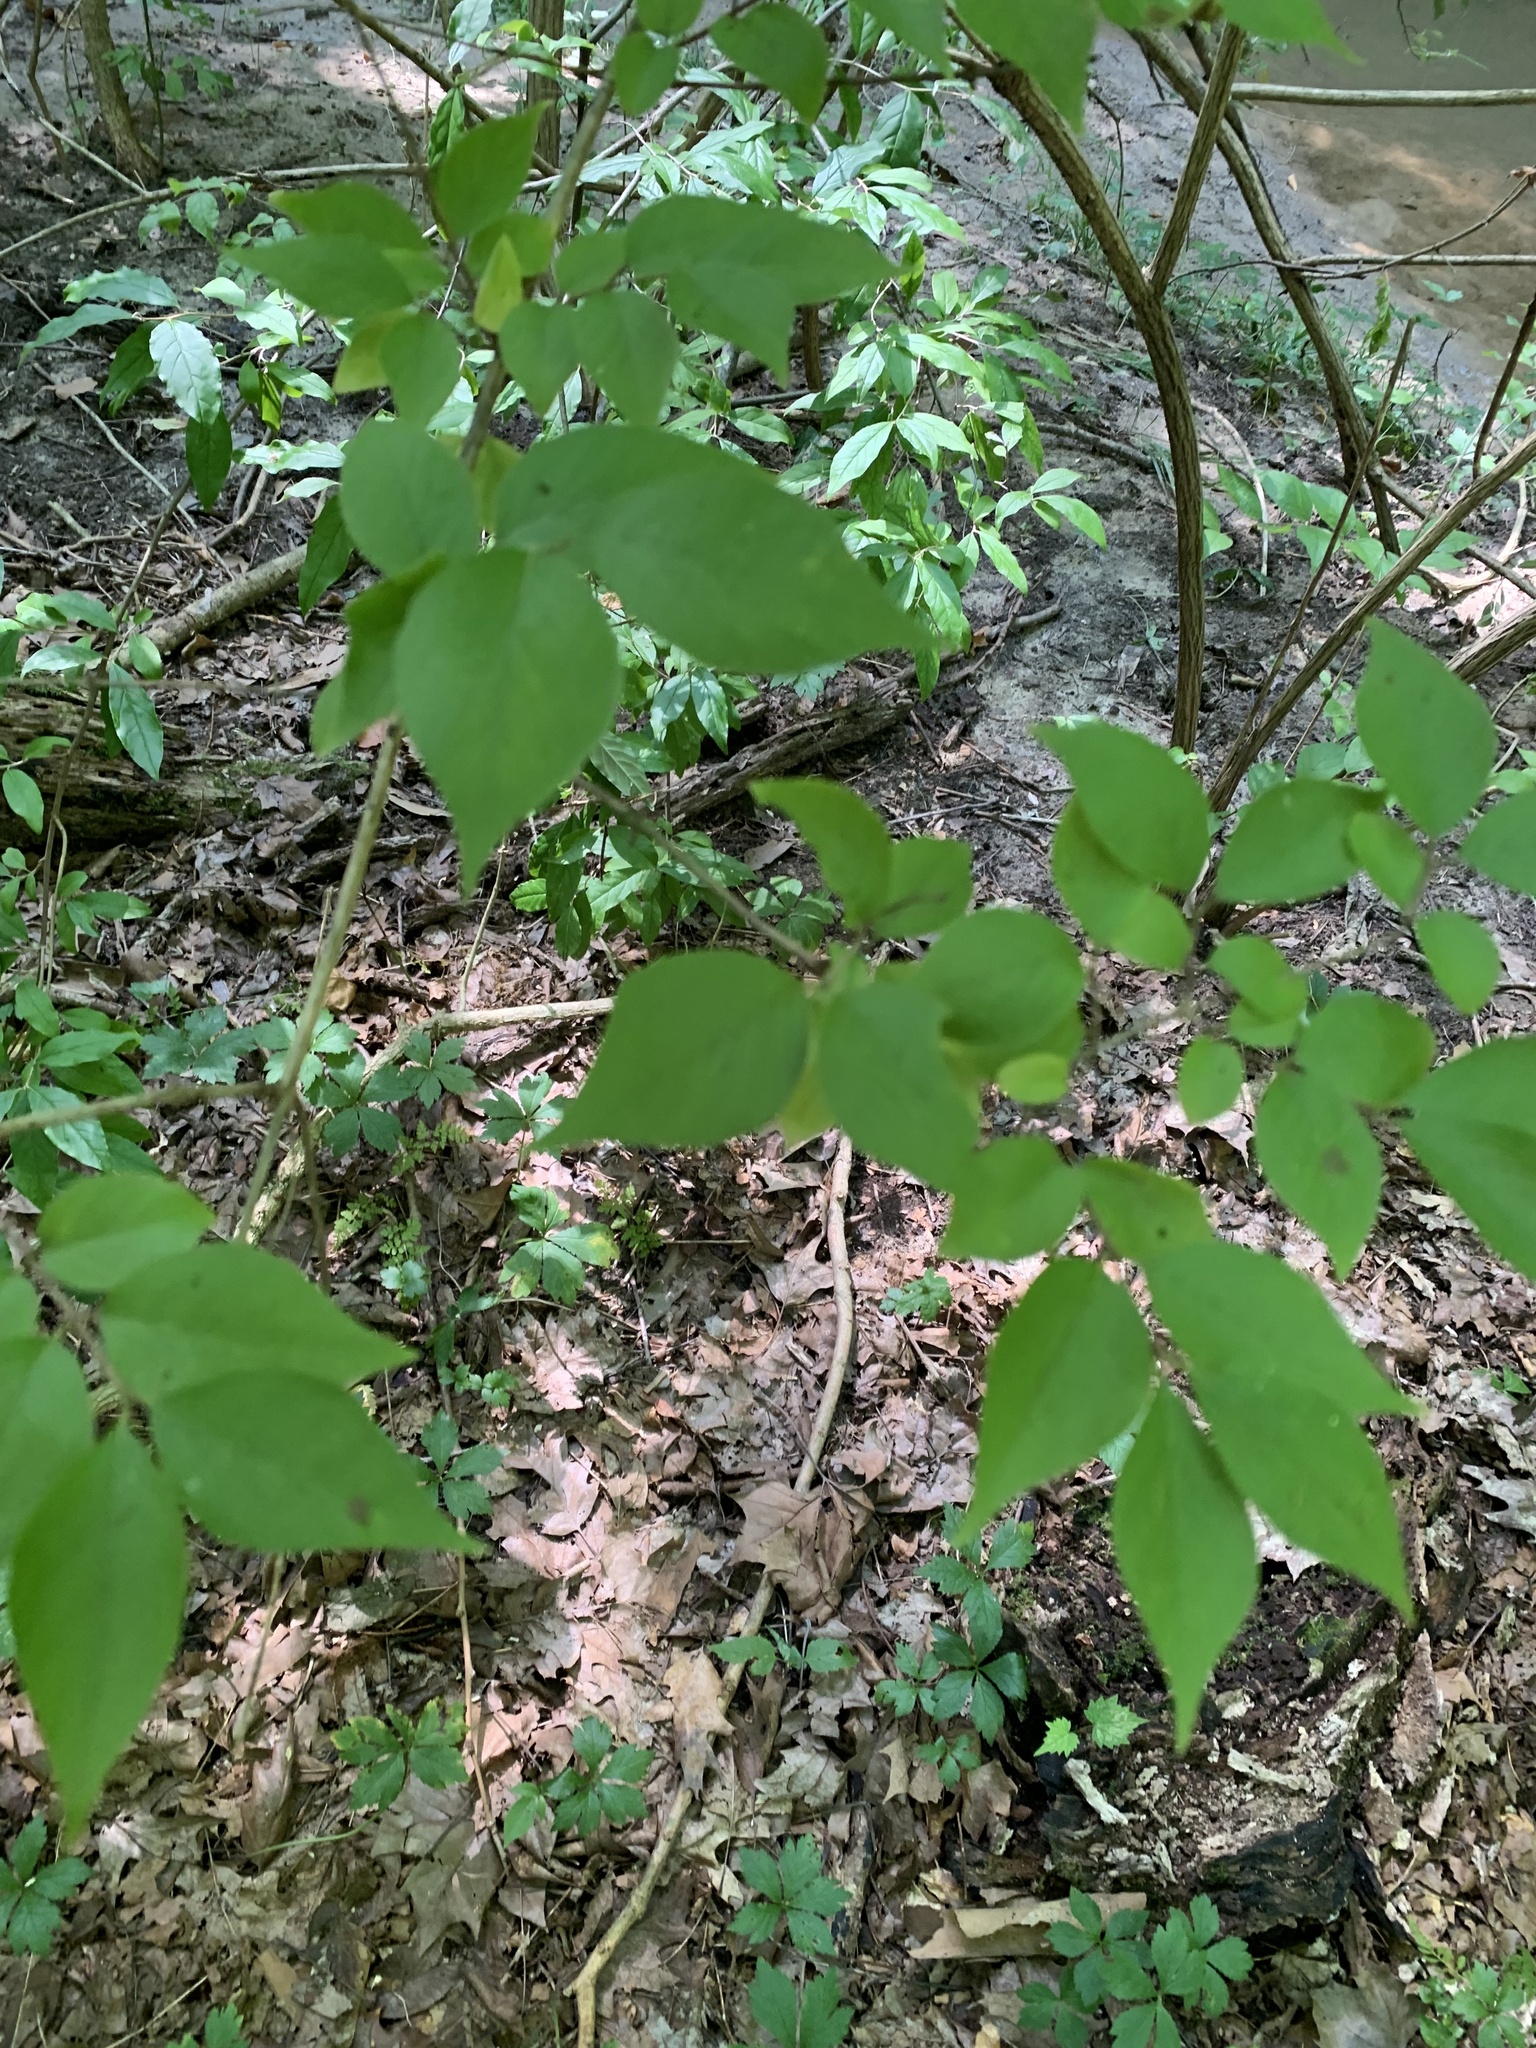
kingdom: Plantae
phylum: Tracheophyta
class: Magnoliopsida
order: Dipsacales
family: Caprifoliaceae
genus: Lonicera
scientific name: Lonicera maackii
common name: Amur honeysuckle
